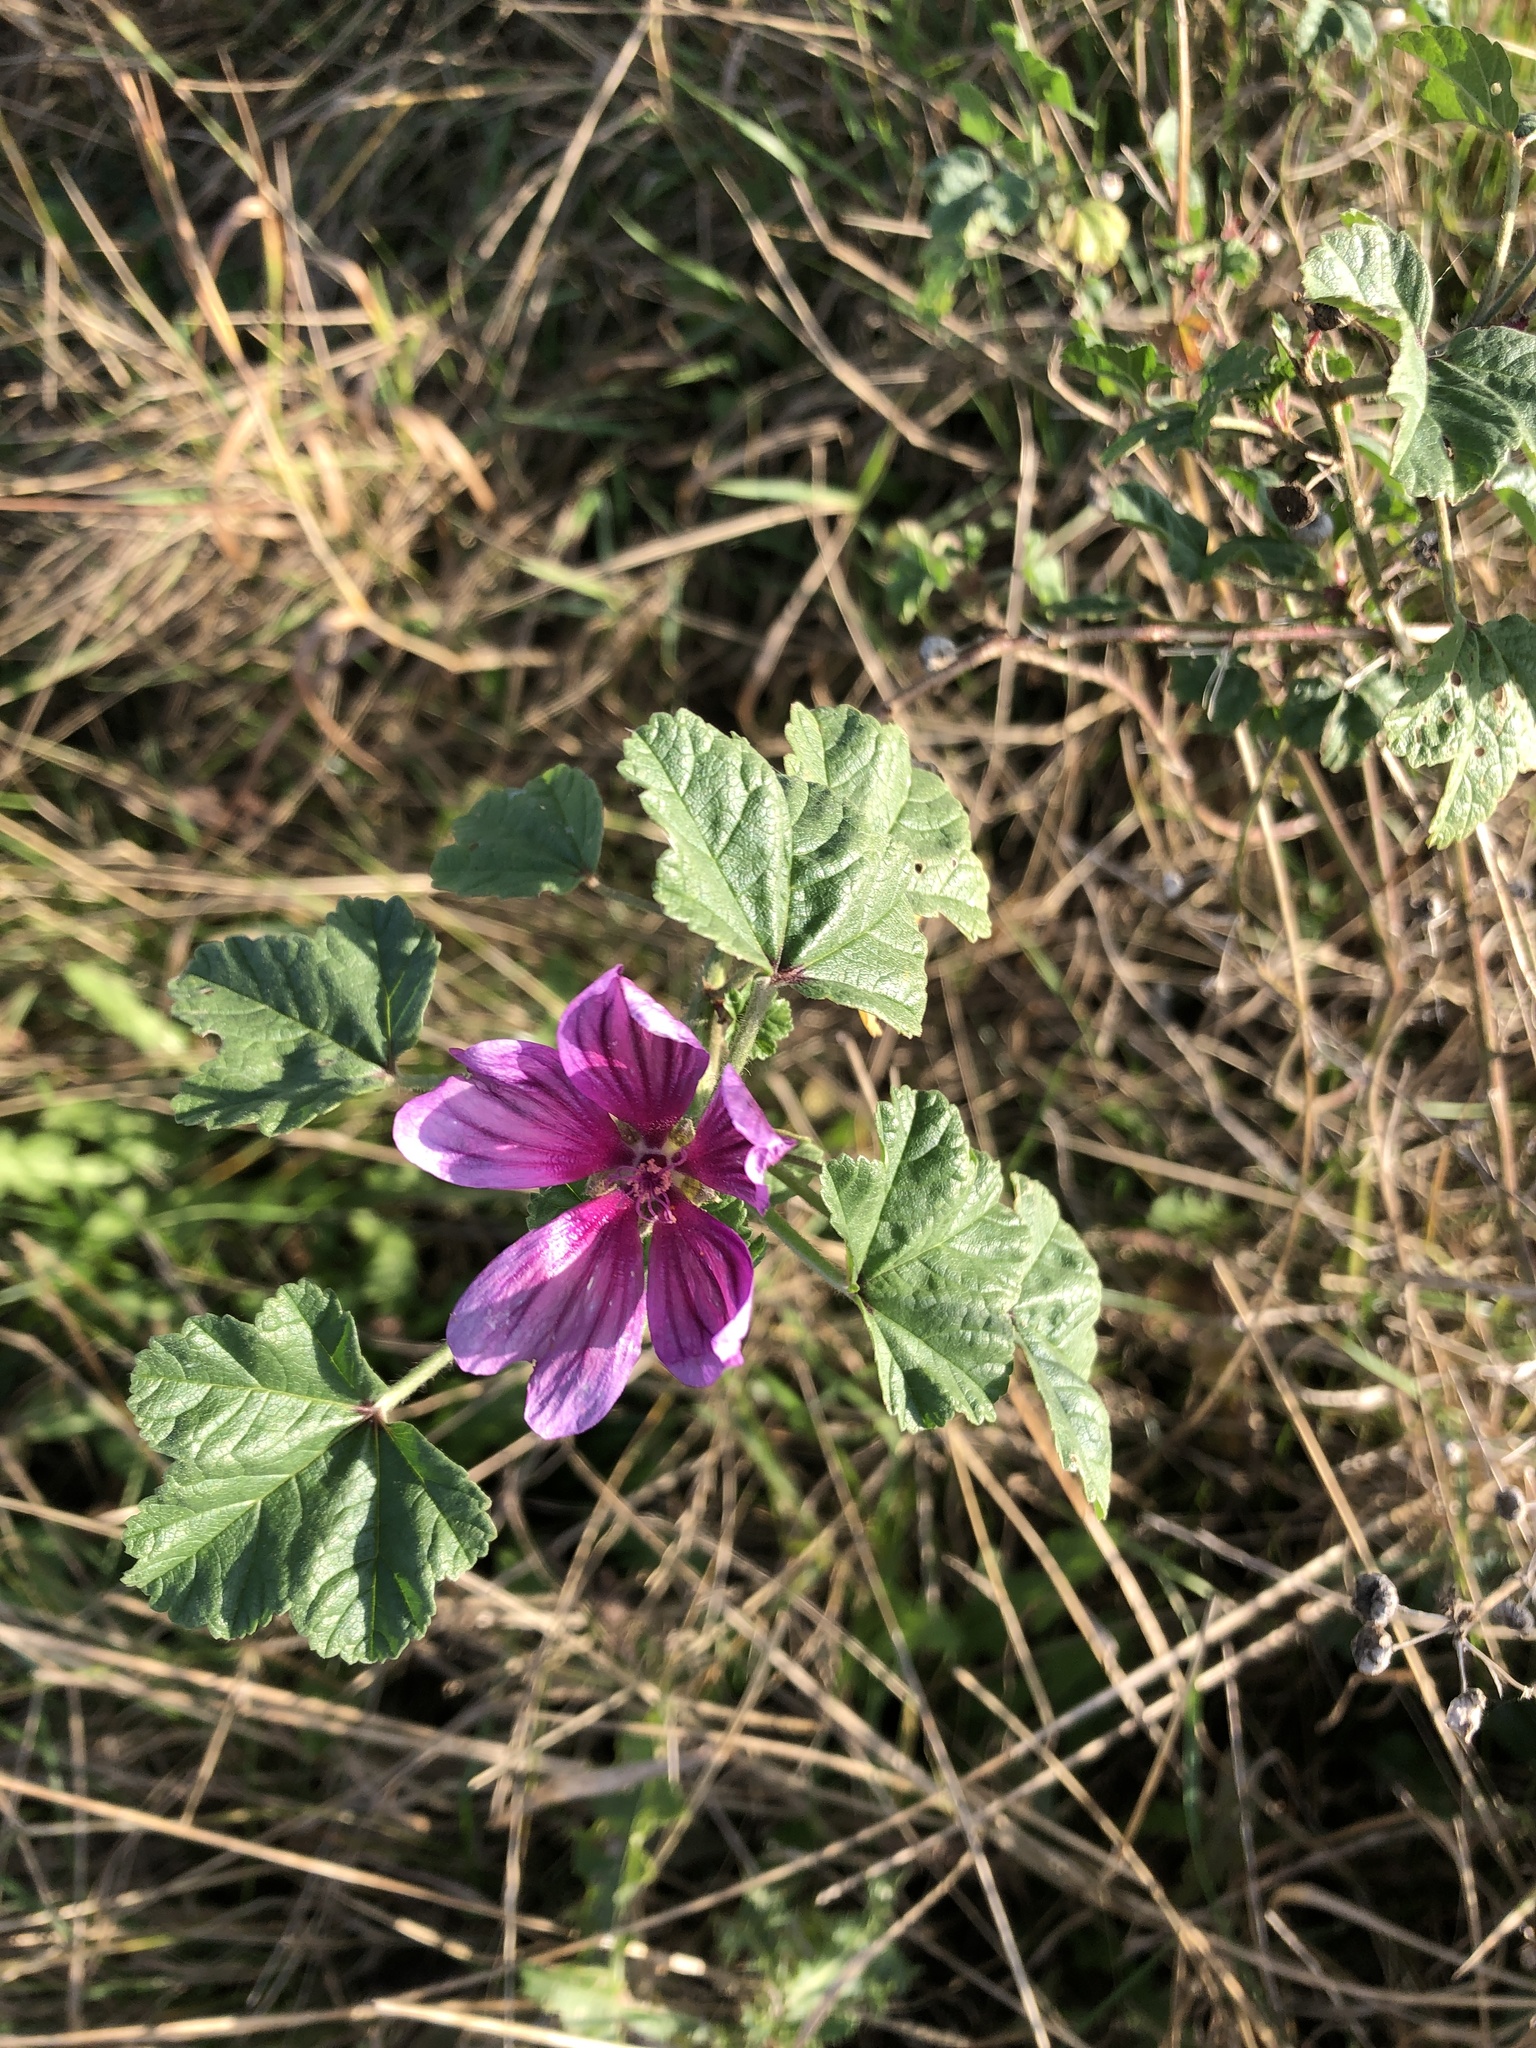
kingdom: Plantae
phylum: Tracheophyta
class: Magnoliopsida
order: Malvales
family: Malvaceae
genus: Malva
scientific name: Malva sylvestris
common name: Common mallow
